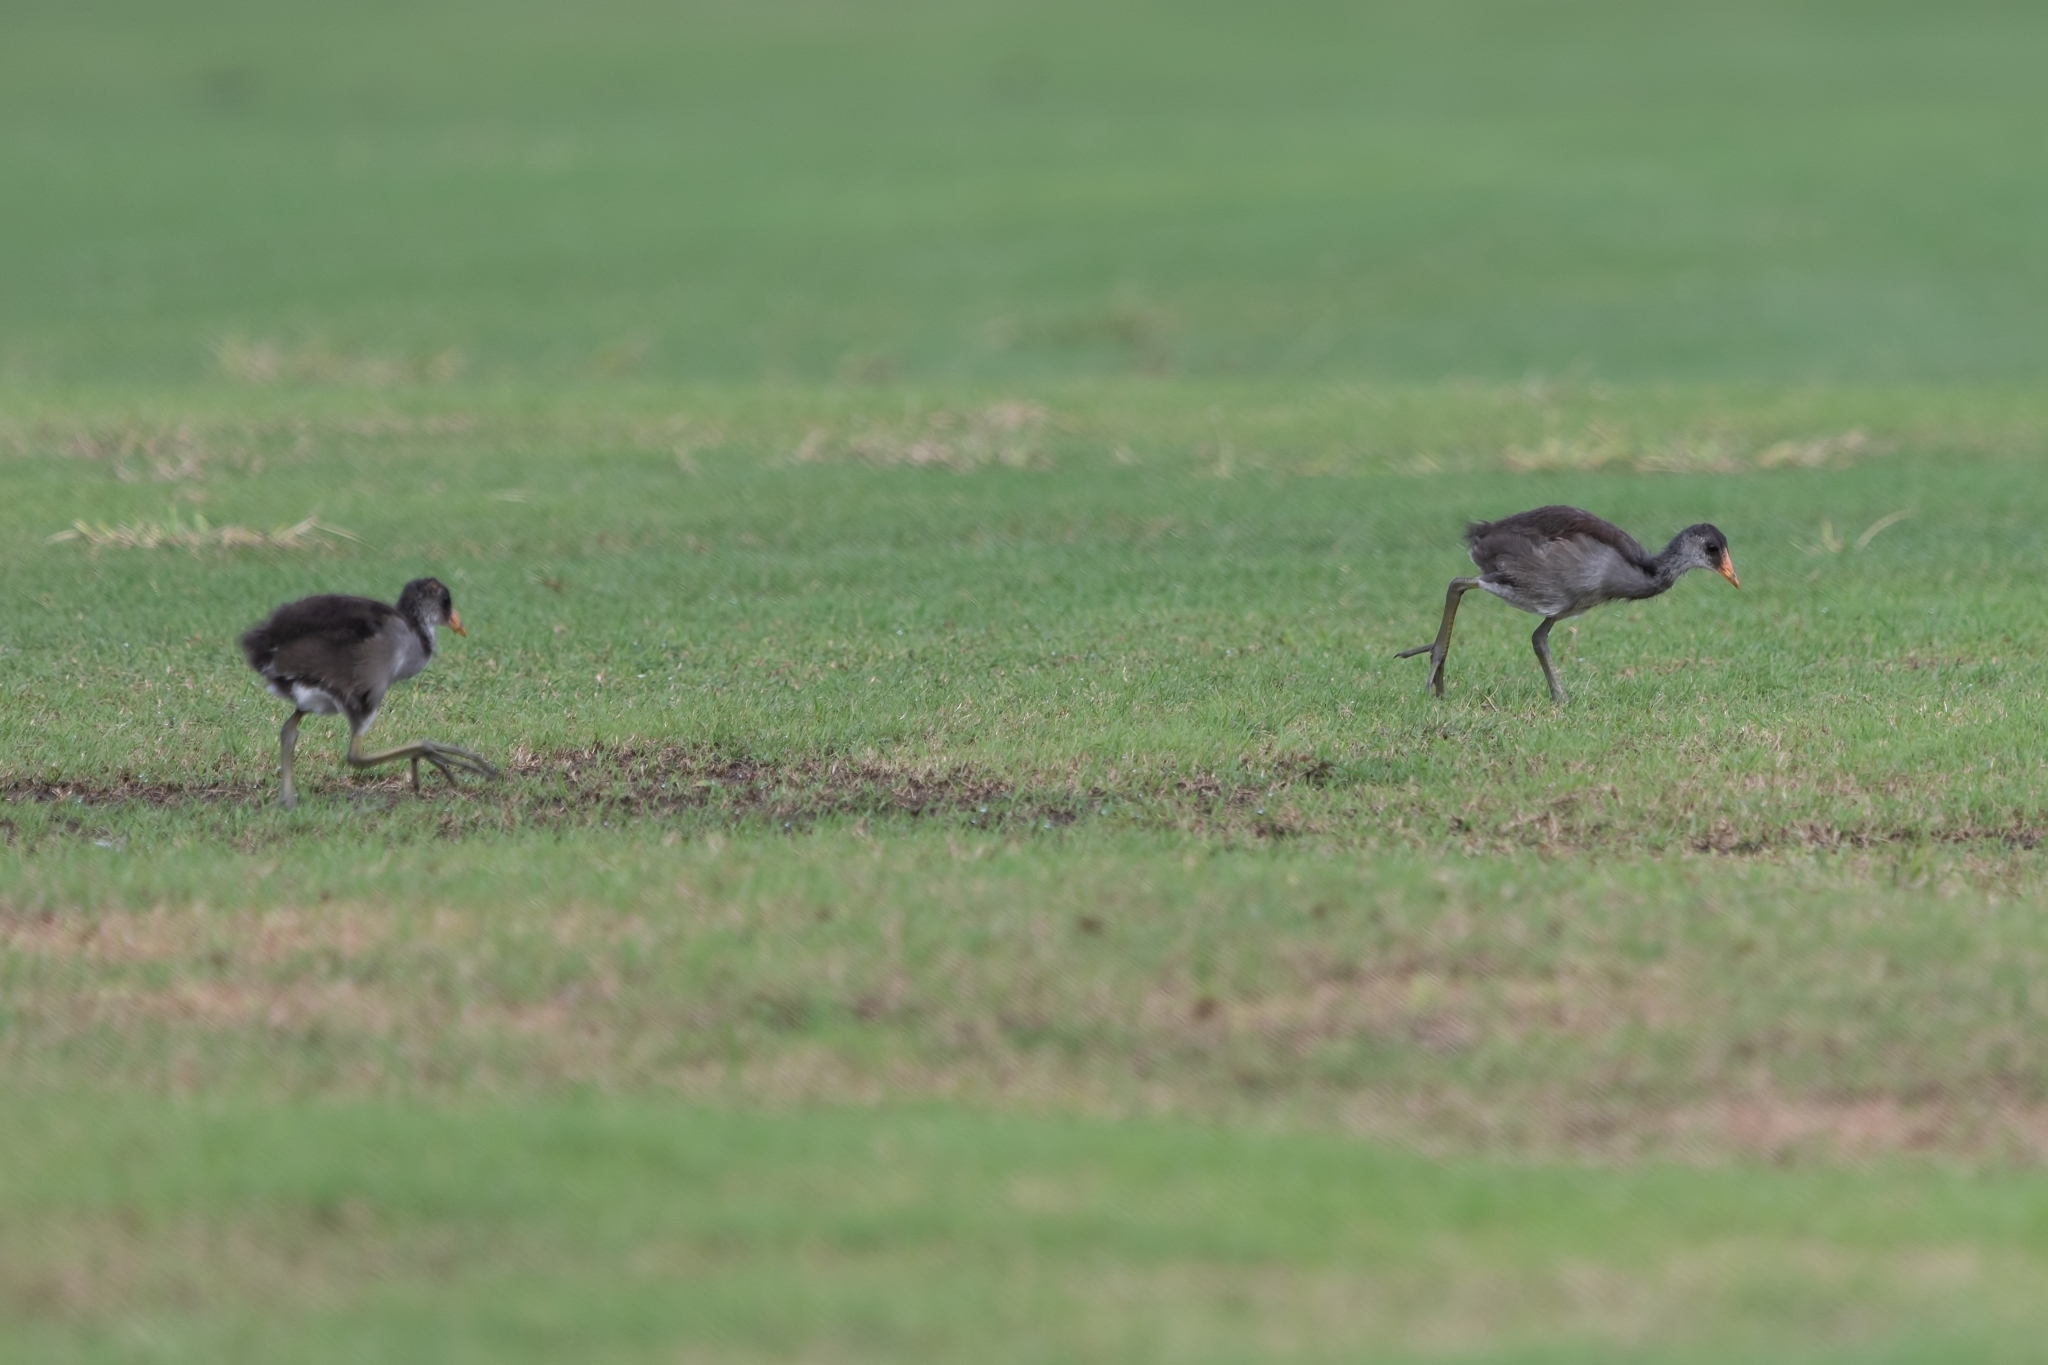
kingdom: Animalia
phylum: Chordata
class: Aves
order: Gruiformes
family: Rallidae
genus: Gallinula
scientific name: Gallinula chloropus
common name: Common moorhen
